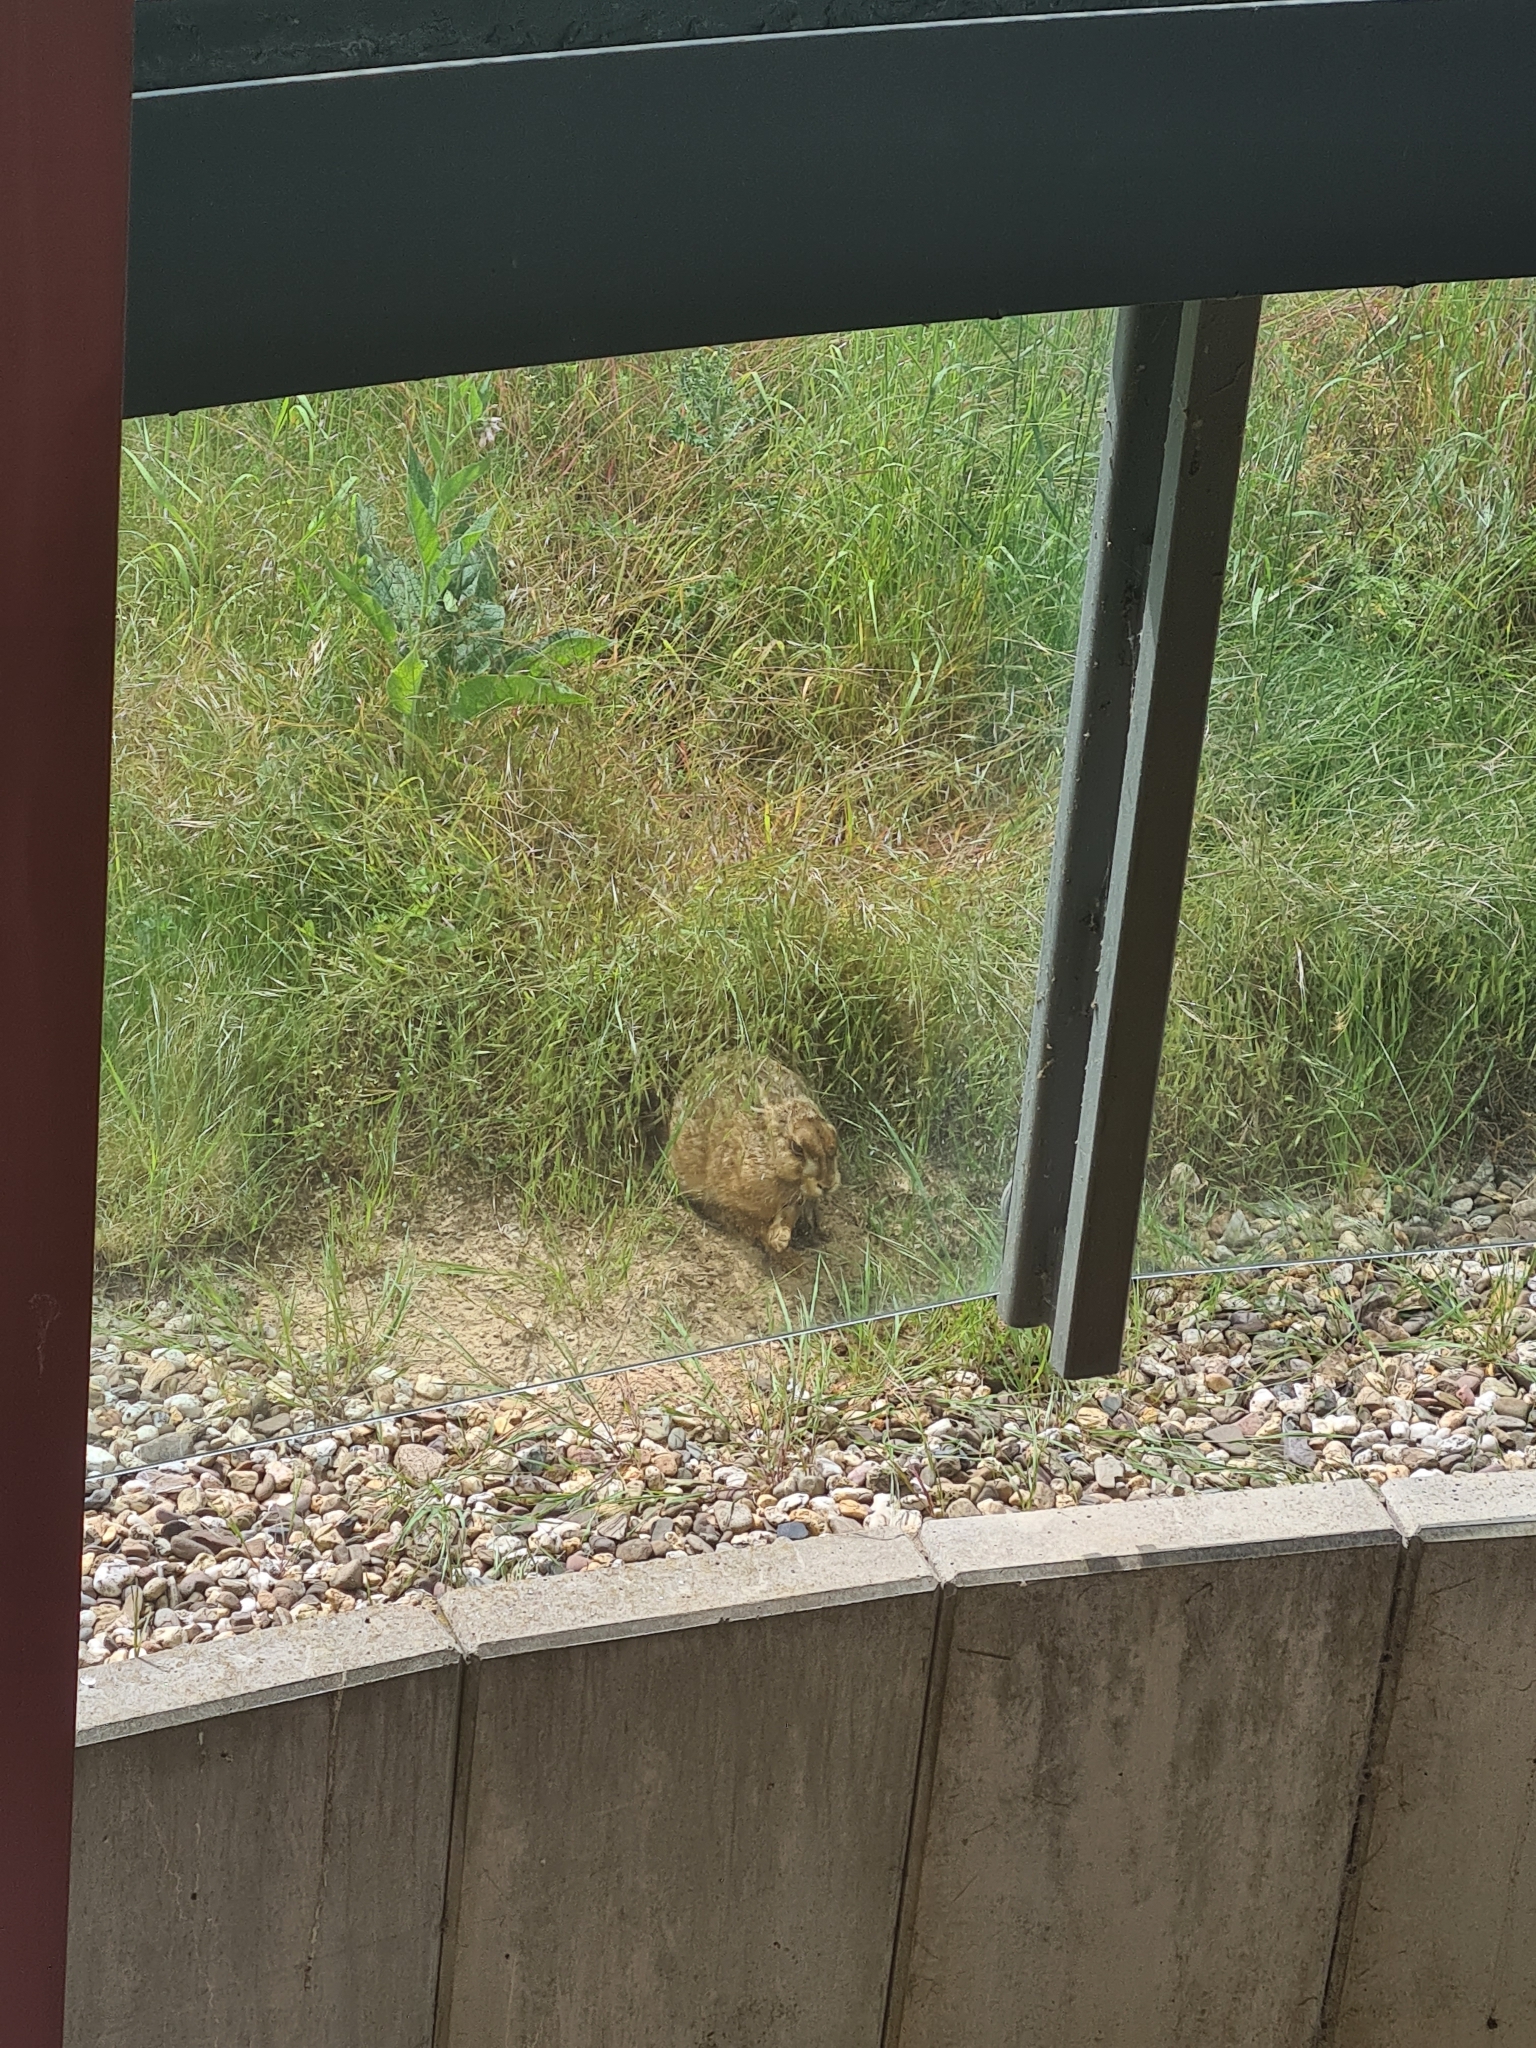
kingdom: Animalia
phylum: Chordata
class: Mammalia
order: Lagomorpha
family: Leporidae
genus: Lepus
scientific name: Lepus europaeus
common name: European hare
